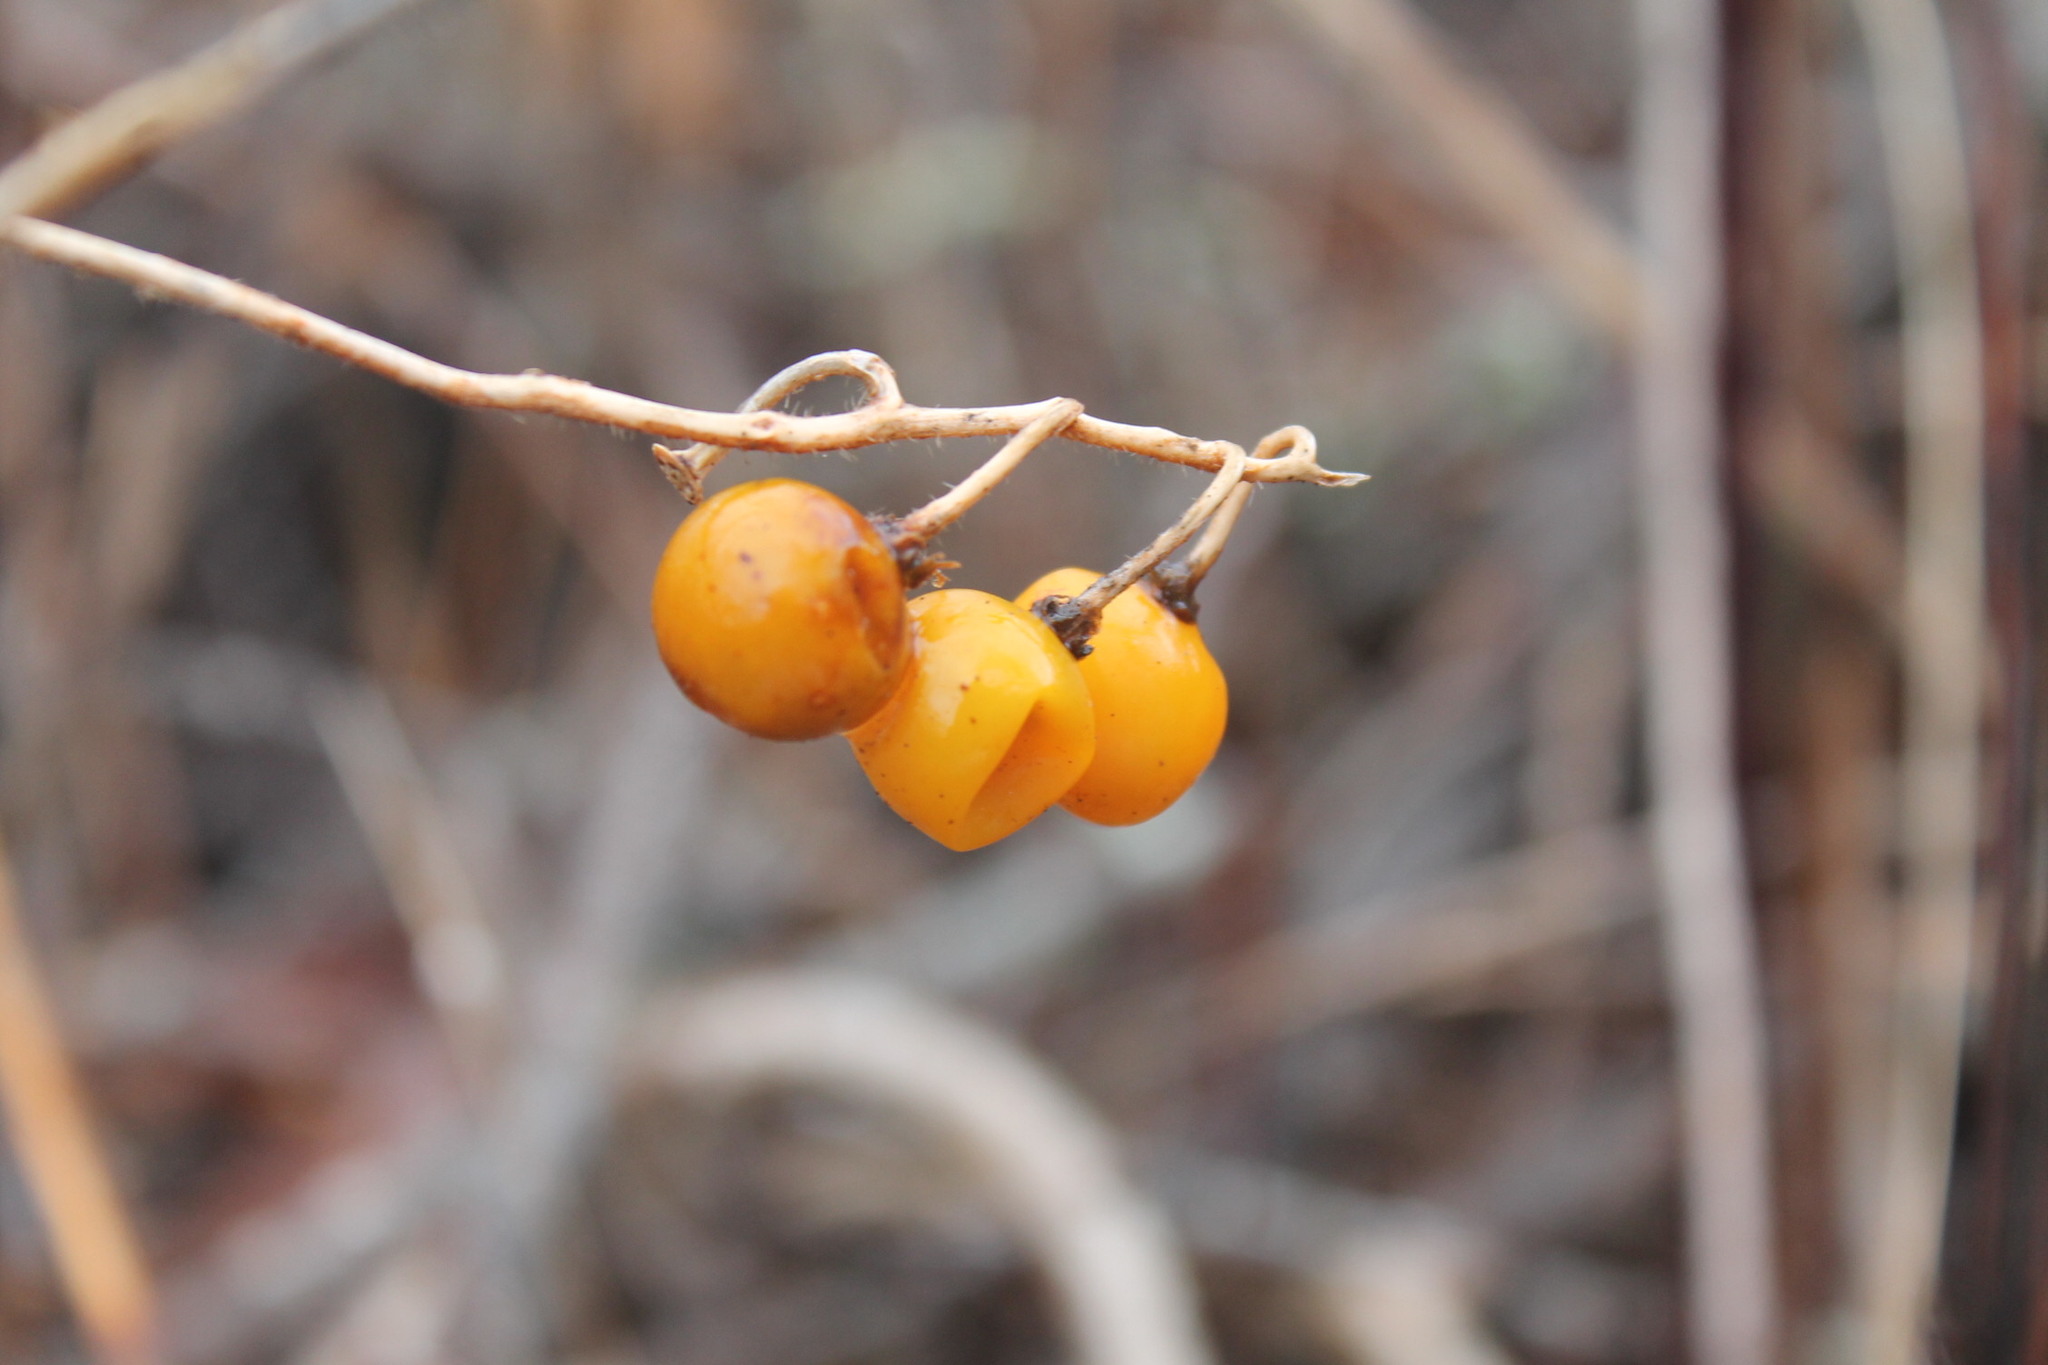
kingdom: Plantae
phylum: Tracheophyta
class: Magnoliopsida
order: Solanales
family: Solanaceae
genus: Solanum
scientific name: Solanum carolinense
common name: Horse-nettle
